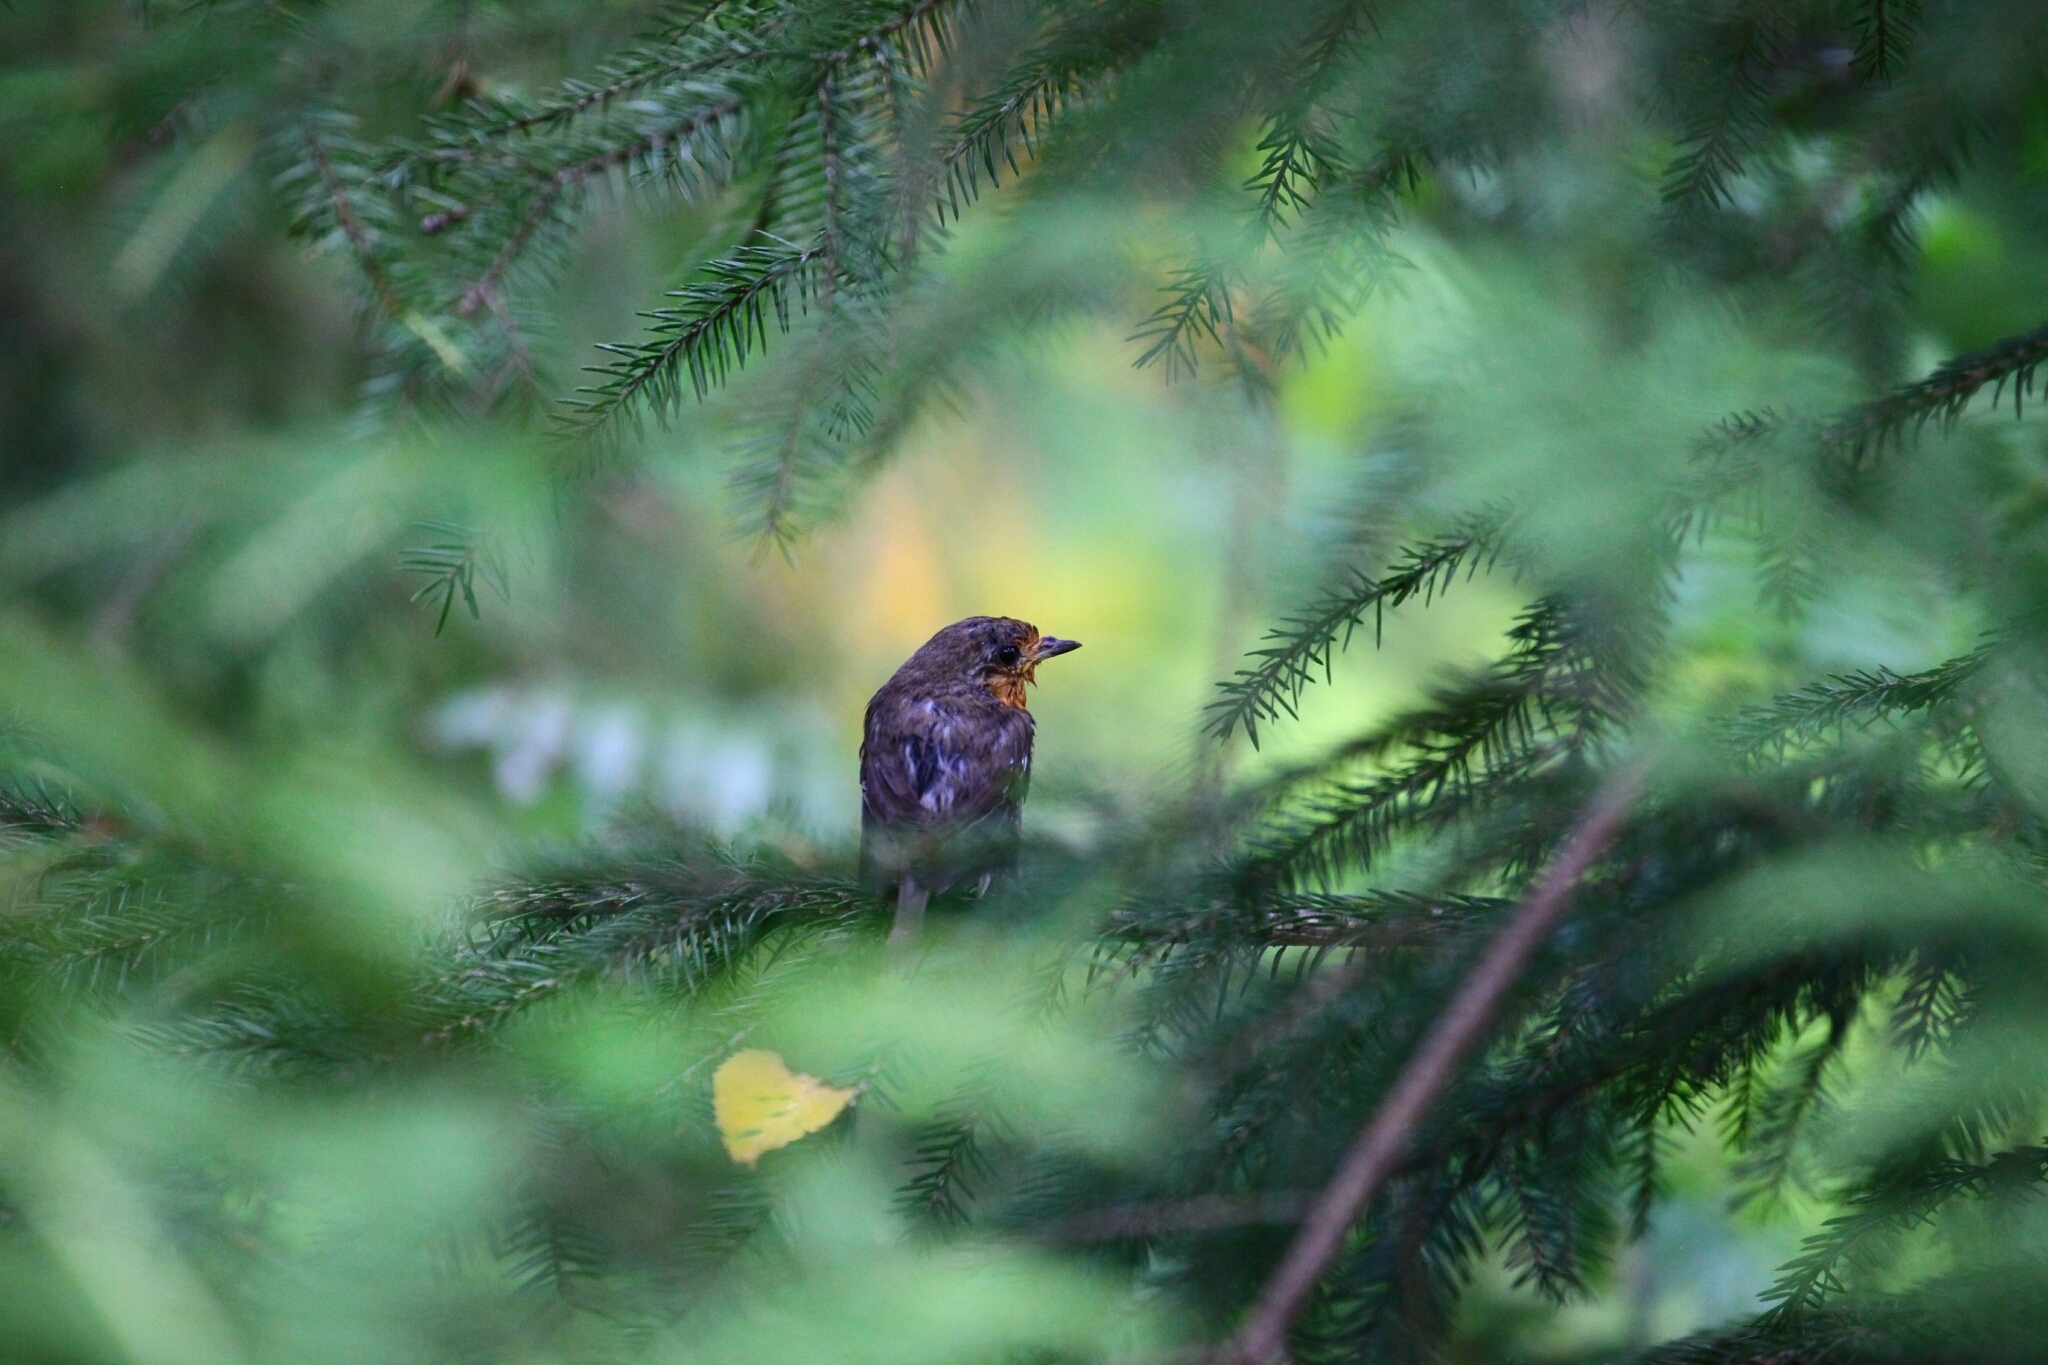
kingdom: Animalia
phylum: Chordata
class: Aves
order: Passeriformes
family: Muscicapidae
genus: Erithacus
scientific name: Erithacus rubecula
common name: European robin
